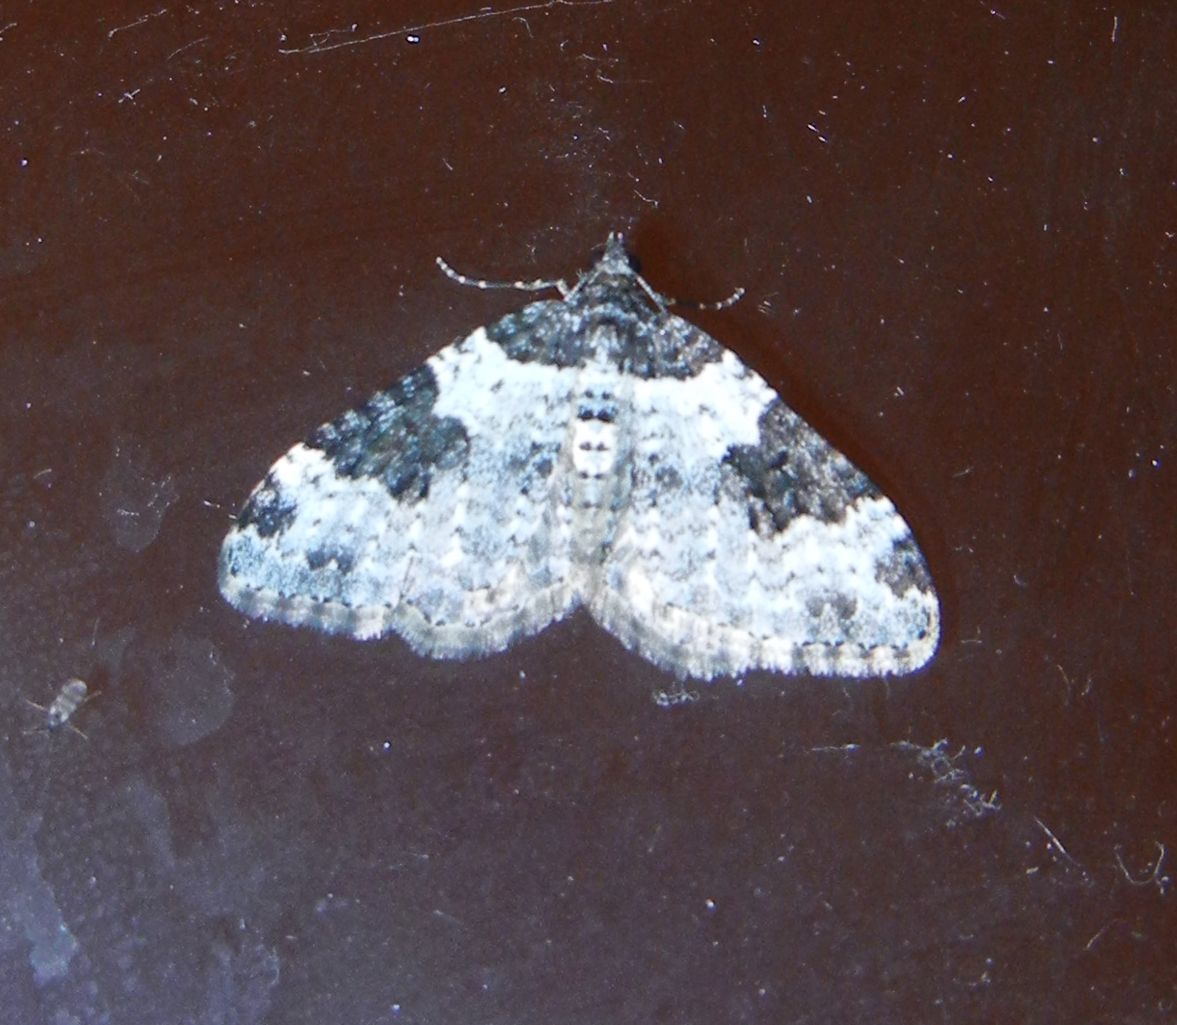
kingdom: Animalia
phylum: Arthropoda
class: Insecta
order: Lepidoptera
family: Geometridae
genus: Xanthorhoe
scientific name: Xanthorhoe fluctuata
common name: Garden carpet
